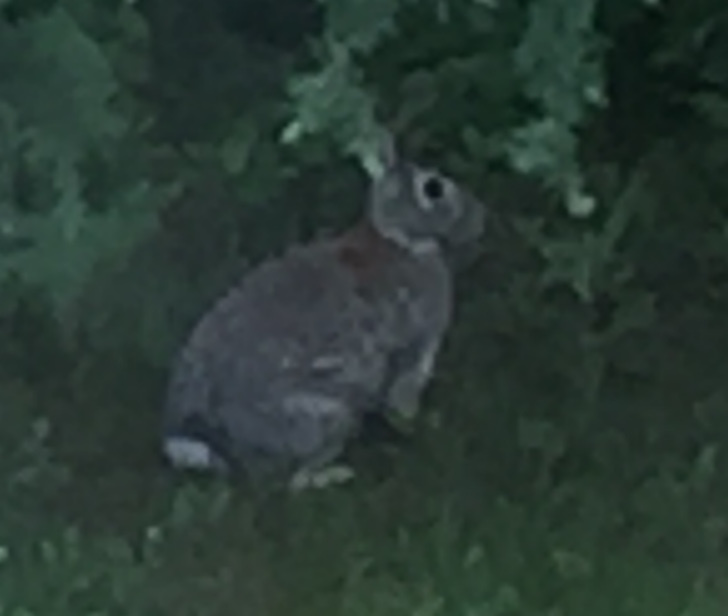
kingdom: Animalia
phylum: Chordata
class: Mammalia
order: Lagomorpha
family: Leporidae
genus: Sylvilagus
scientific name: Sylvilagus floridanus
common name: Eastern cottontail
